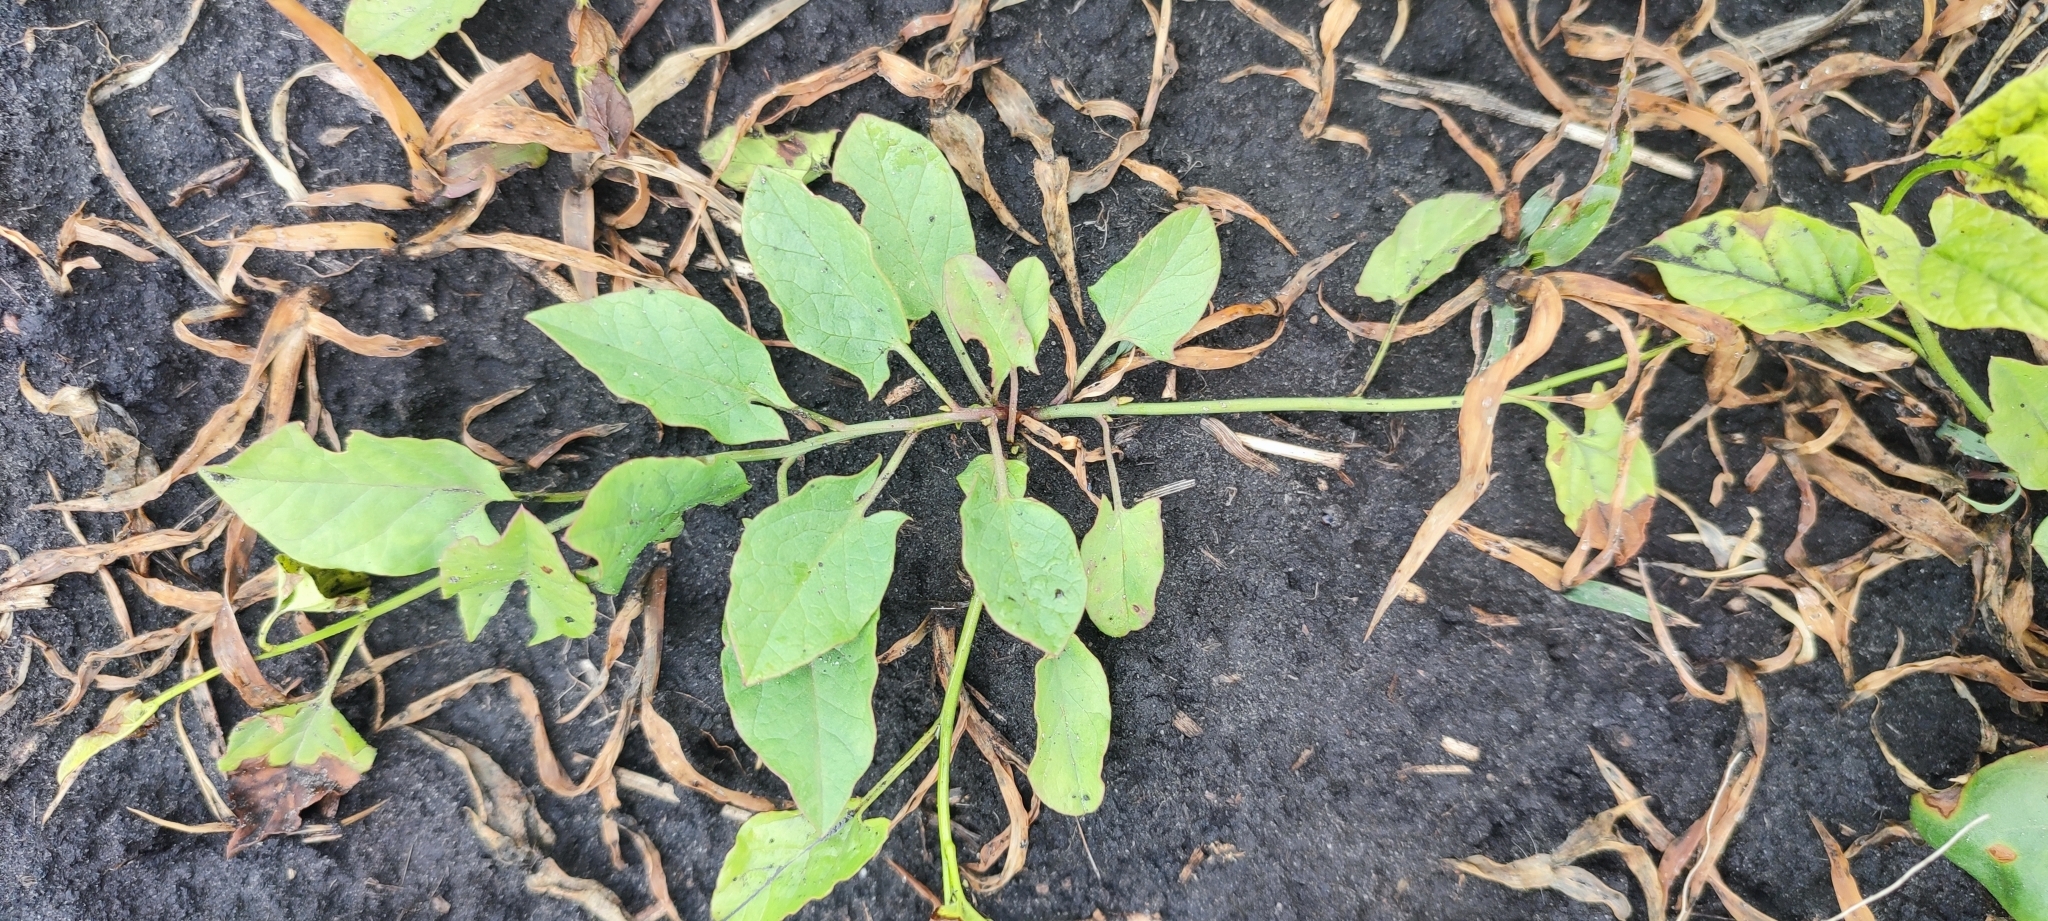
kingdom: Plantae
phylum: Tracheophyta
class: Magnoliopsida
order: Solanales
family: Convolvulaceae
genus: Convolvulus
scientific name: Convolvulus arvensis
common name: Field bindweed
